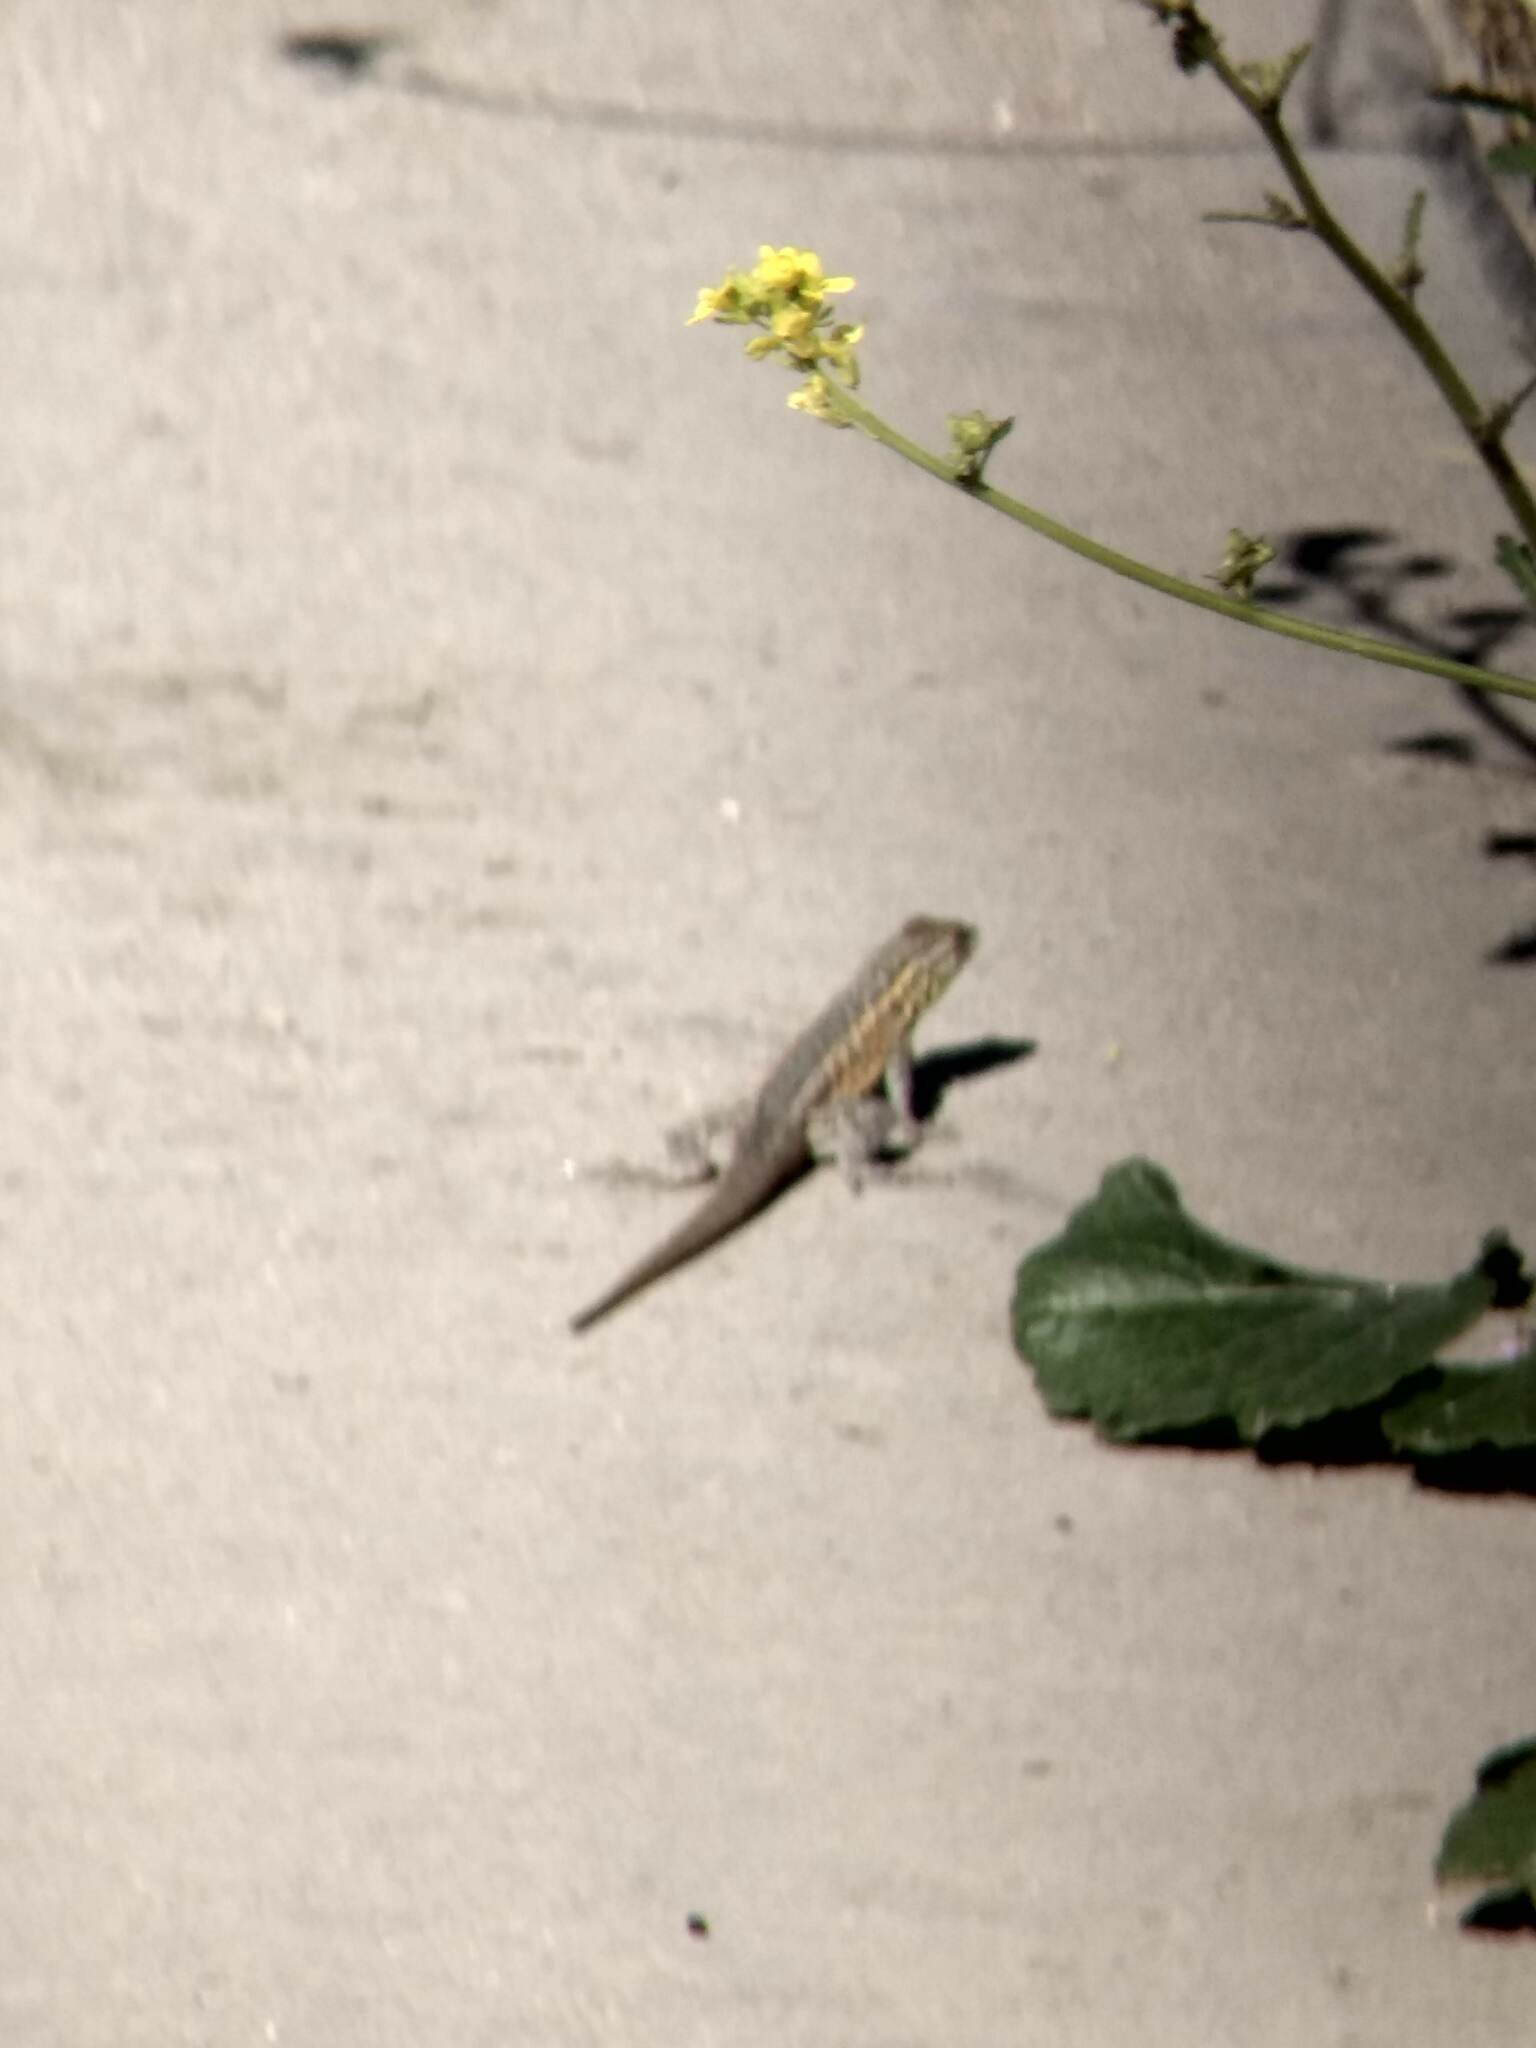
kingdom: Animalia
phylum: Chordata
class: Squamata
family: Phrynosomatidae
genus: Uta
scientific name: Uta stansburiana
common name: Side-blotched lizard
